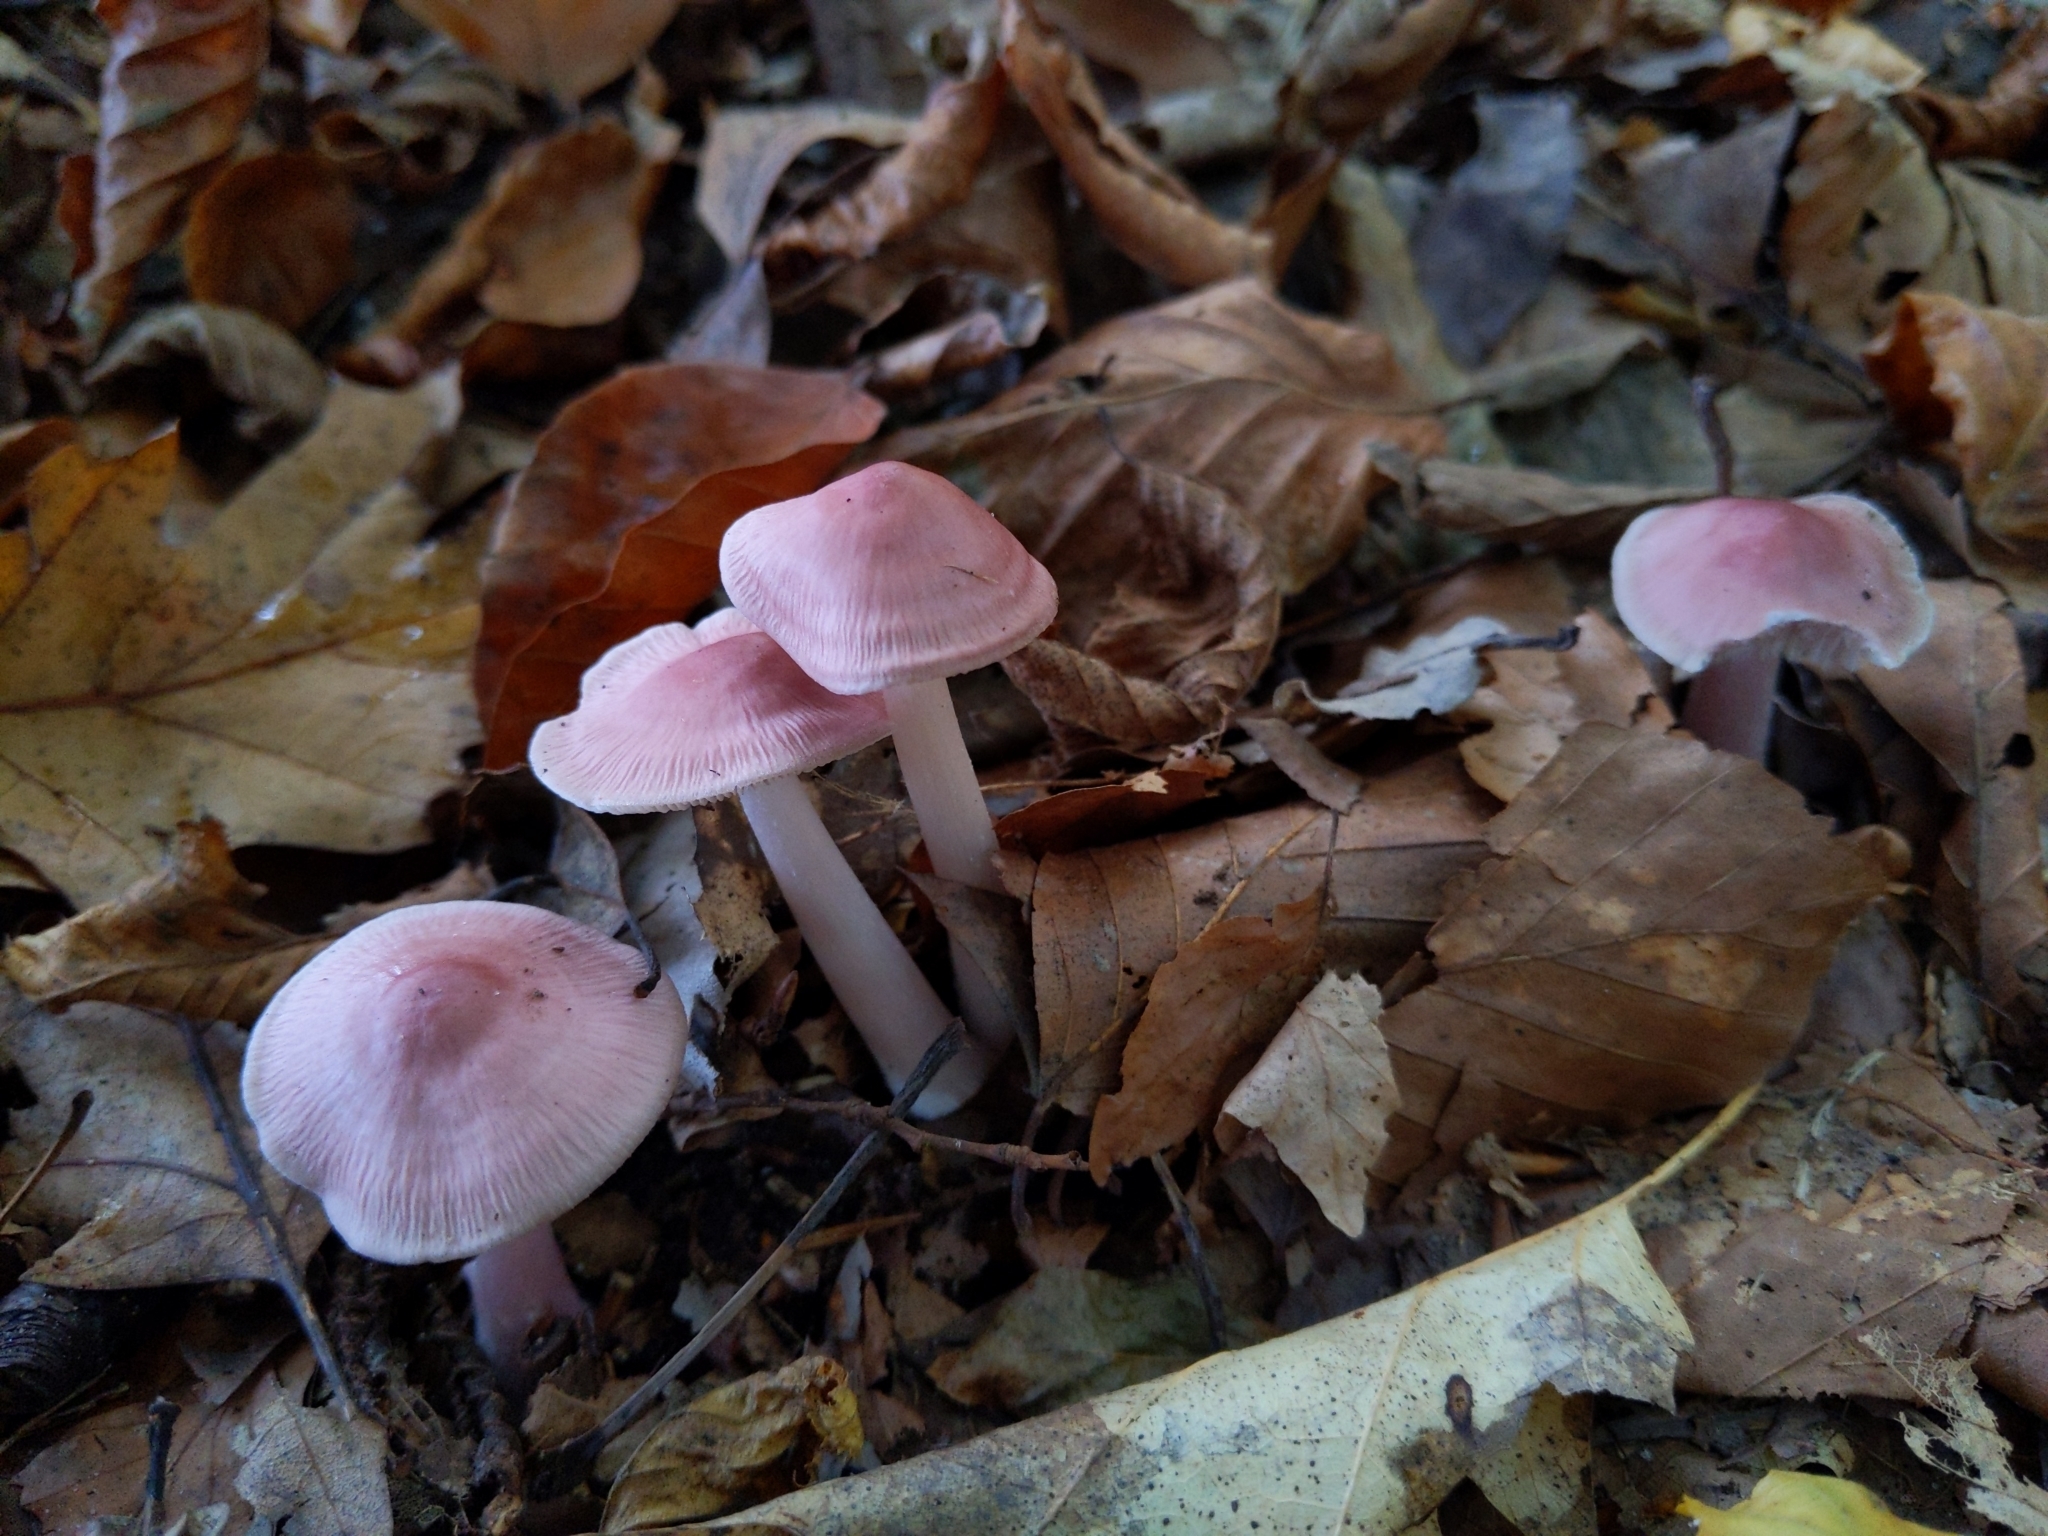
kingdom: Fungi
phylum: Basidiomycota
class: Agaricomycetes
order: Agaricales
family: Mycenaceae
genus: Mycena
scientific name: Mycena rosea
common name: Rosy bonnet
